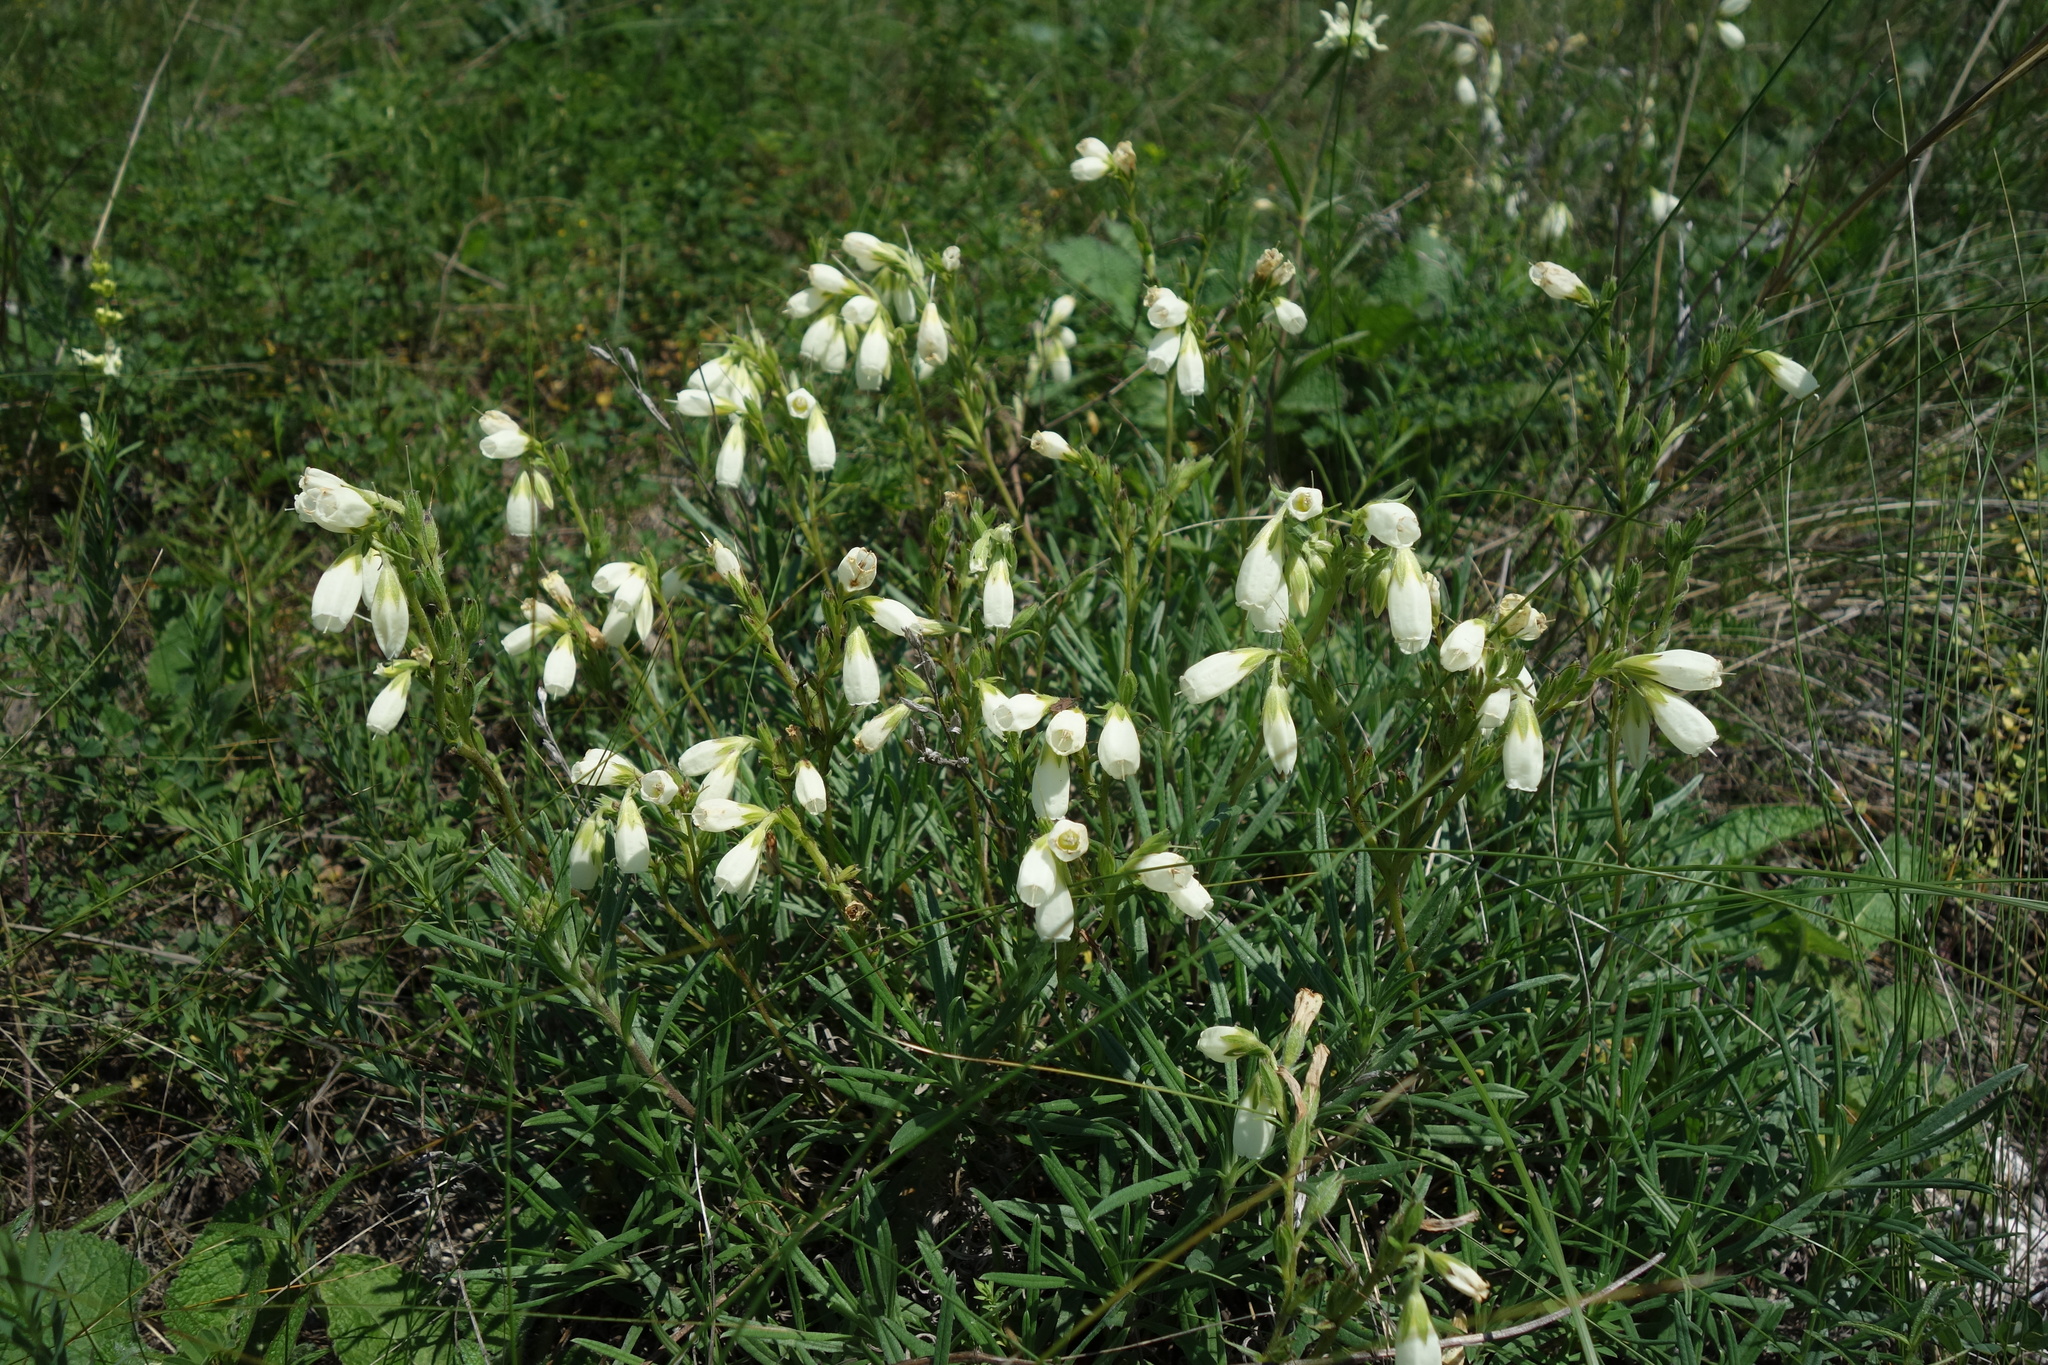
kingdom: Plantae
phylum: Tracheophyta
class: Magnoliopsida
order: Boraginales
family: Boraginaceae
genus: Onosma
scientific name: Onosma simplicissima
